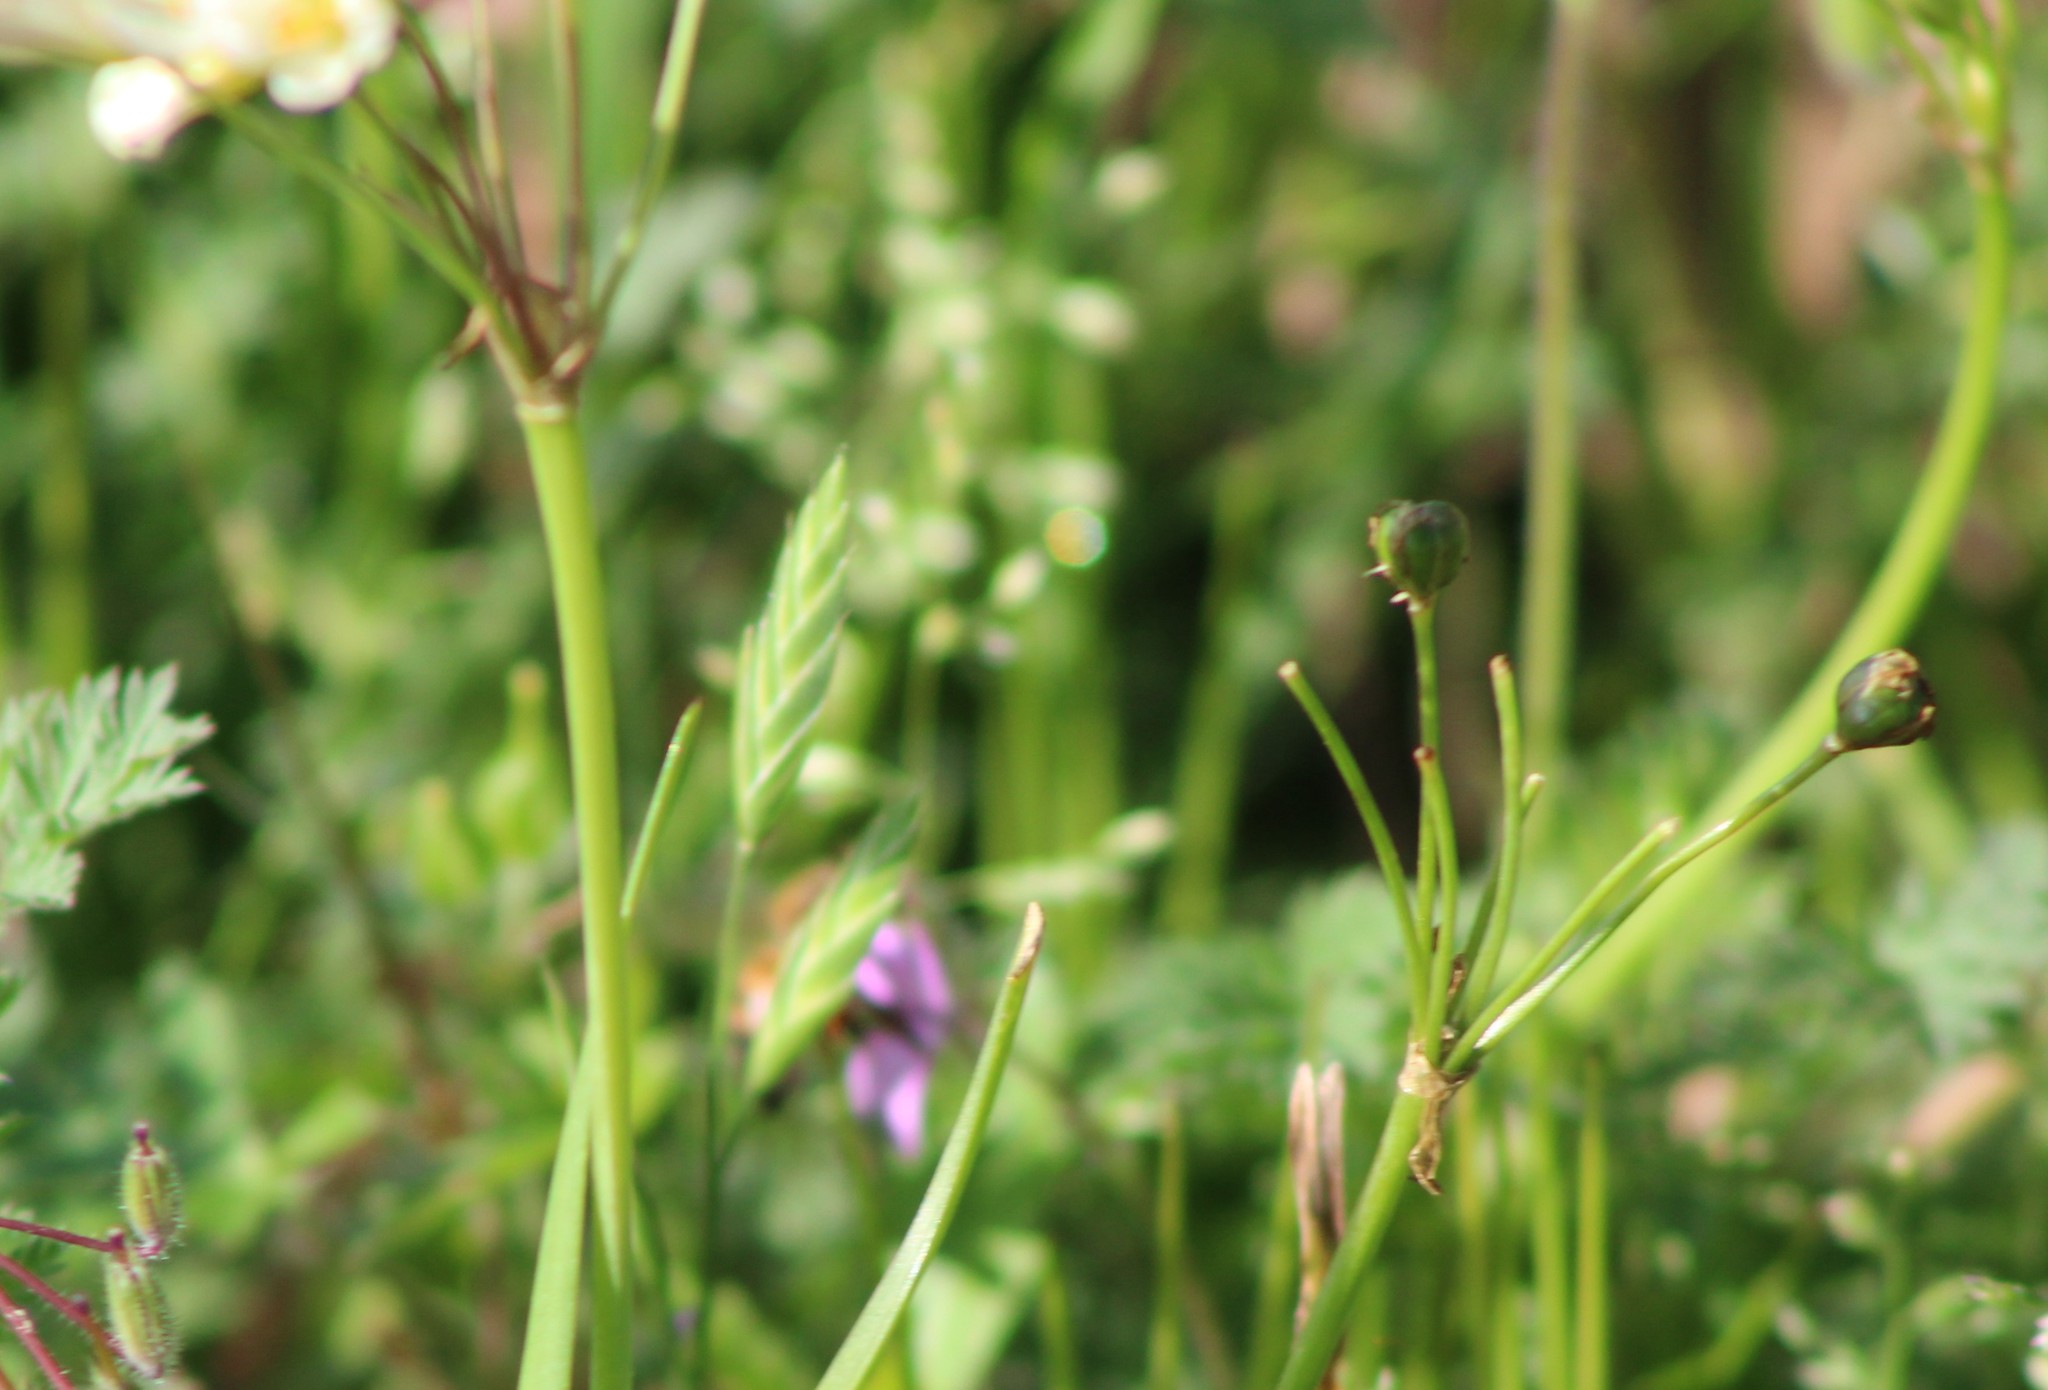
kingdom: Plantae
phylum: Tracheophyta
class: Liliopsida
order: Asparagales
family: Amaryllidaceae
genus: Nothoscordum
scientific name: Nothoscordum bivalve
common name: Crow-poison
